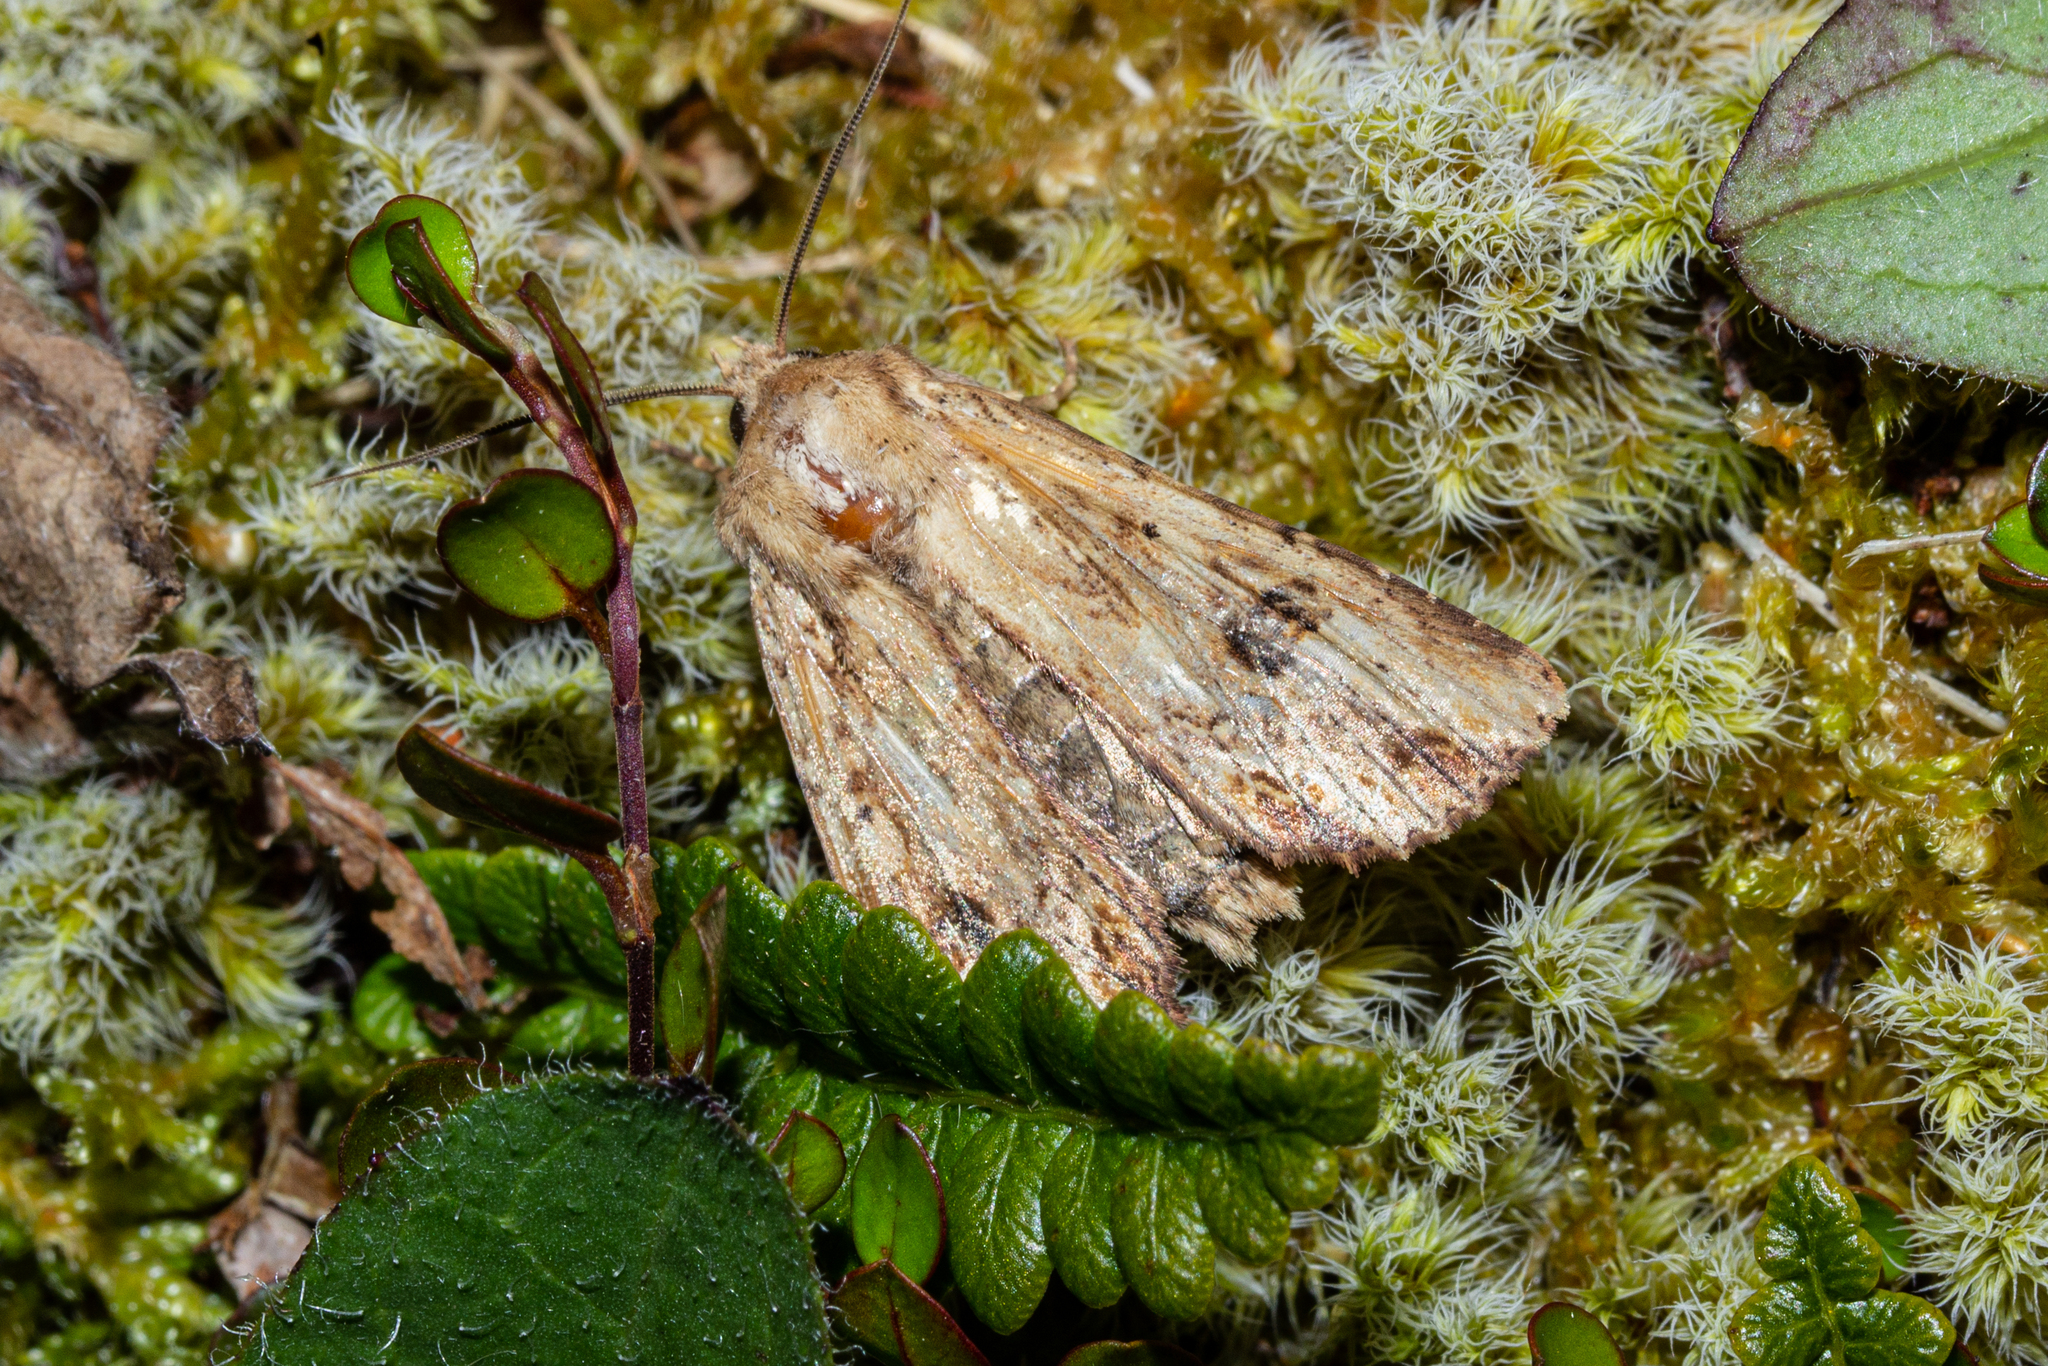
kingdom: Animalia
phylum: Arthropoda
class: Insecta
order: Lepidoptera
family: Noctuidae
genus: Ichneutica
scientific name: Ichneutica
